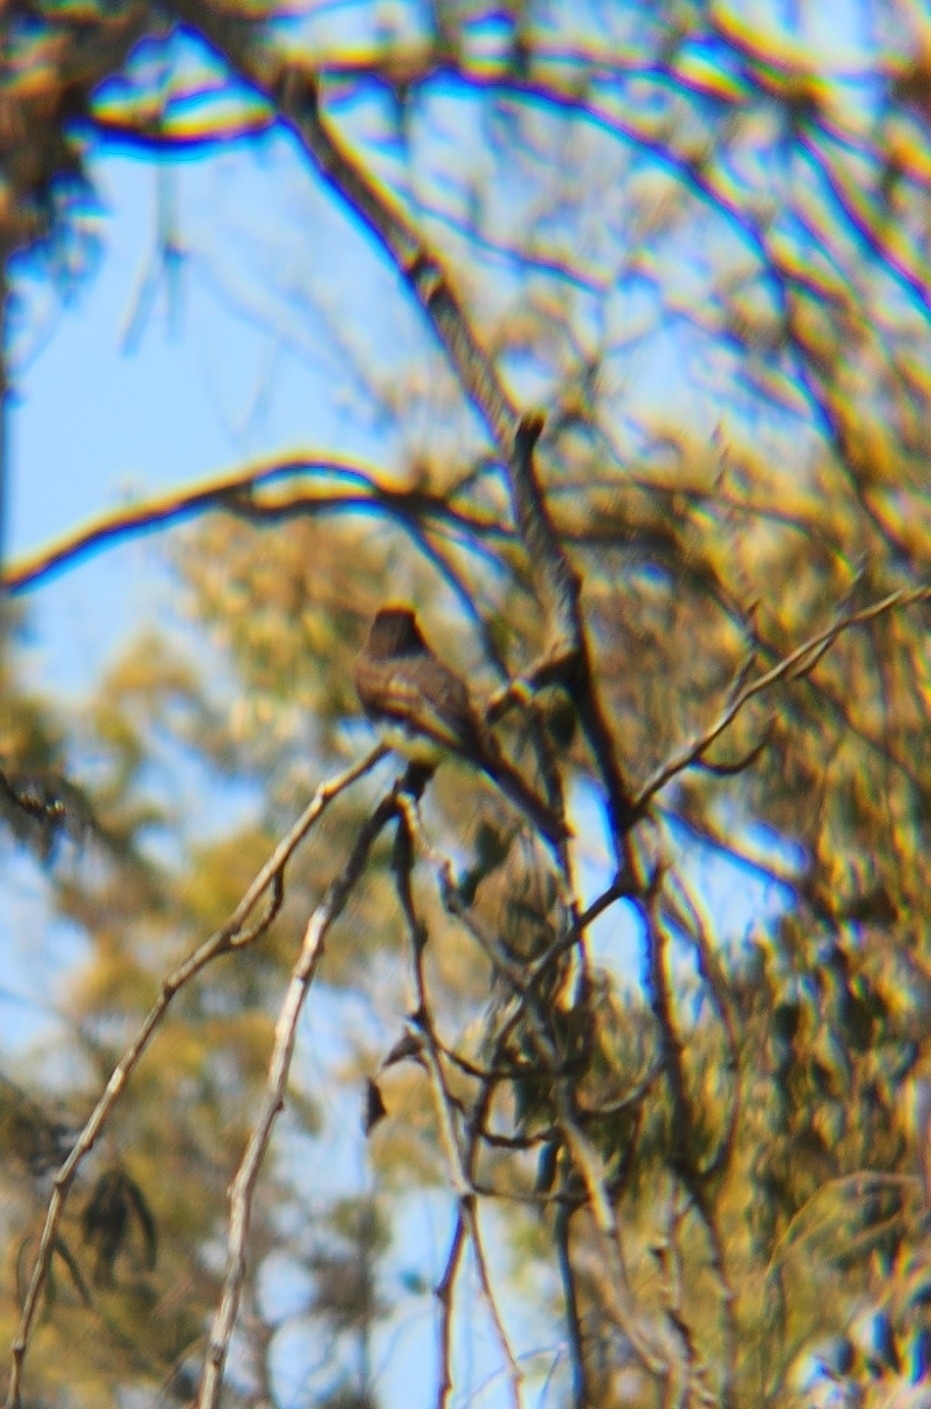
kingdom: Animalia
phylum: Chordata
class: Aves
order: Passeriformes
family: Tyrannidae
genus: Sayornis
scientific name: Sayornis nigricans
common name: Black phoebe
